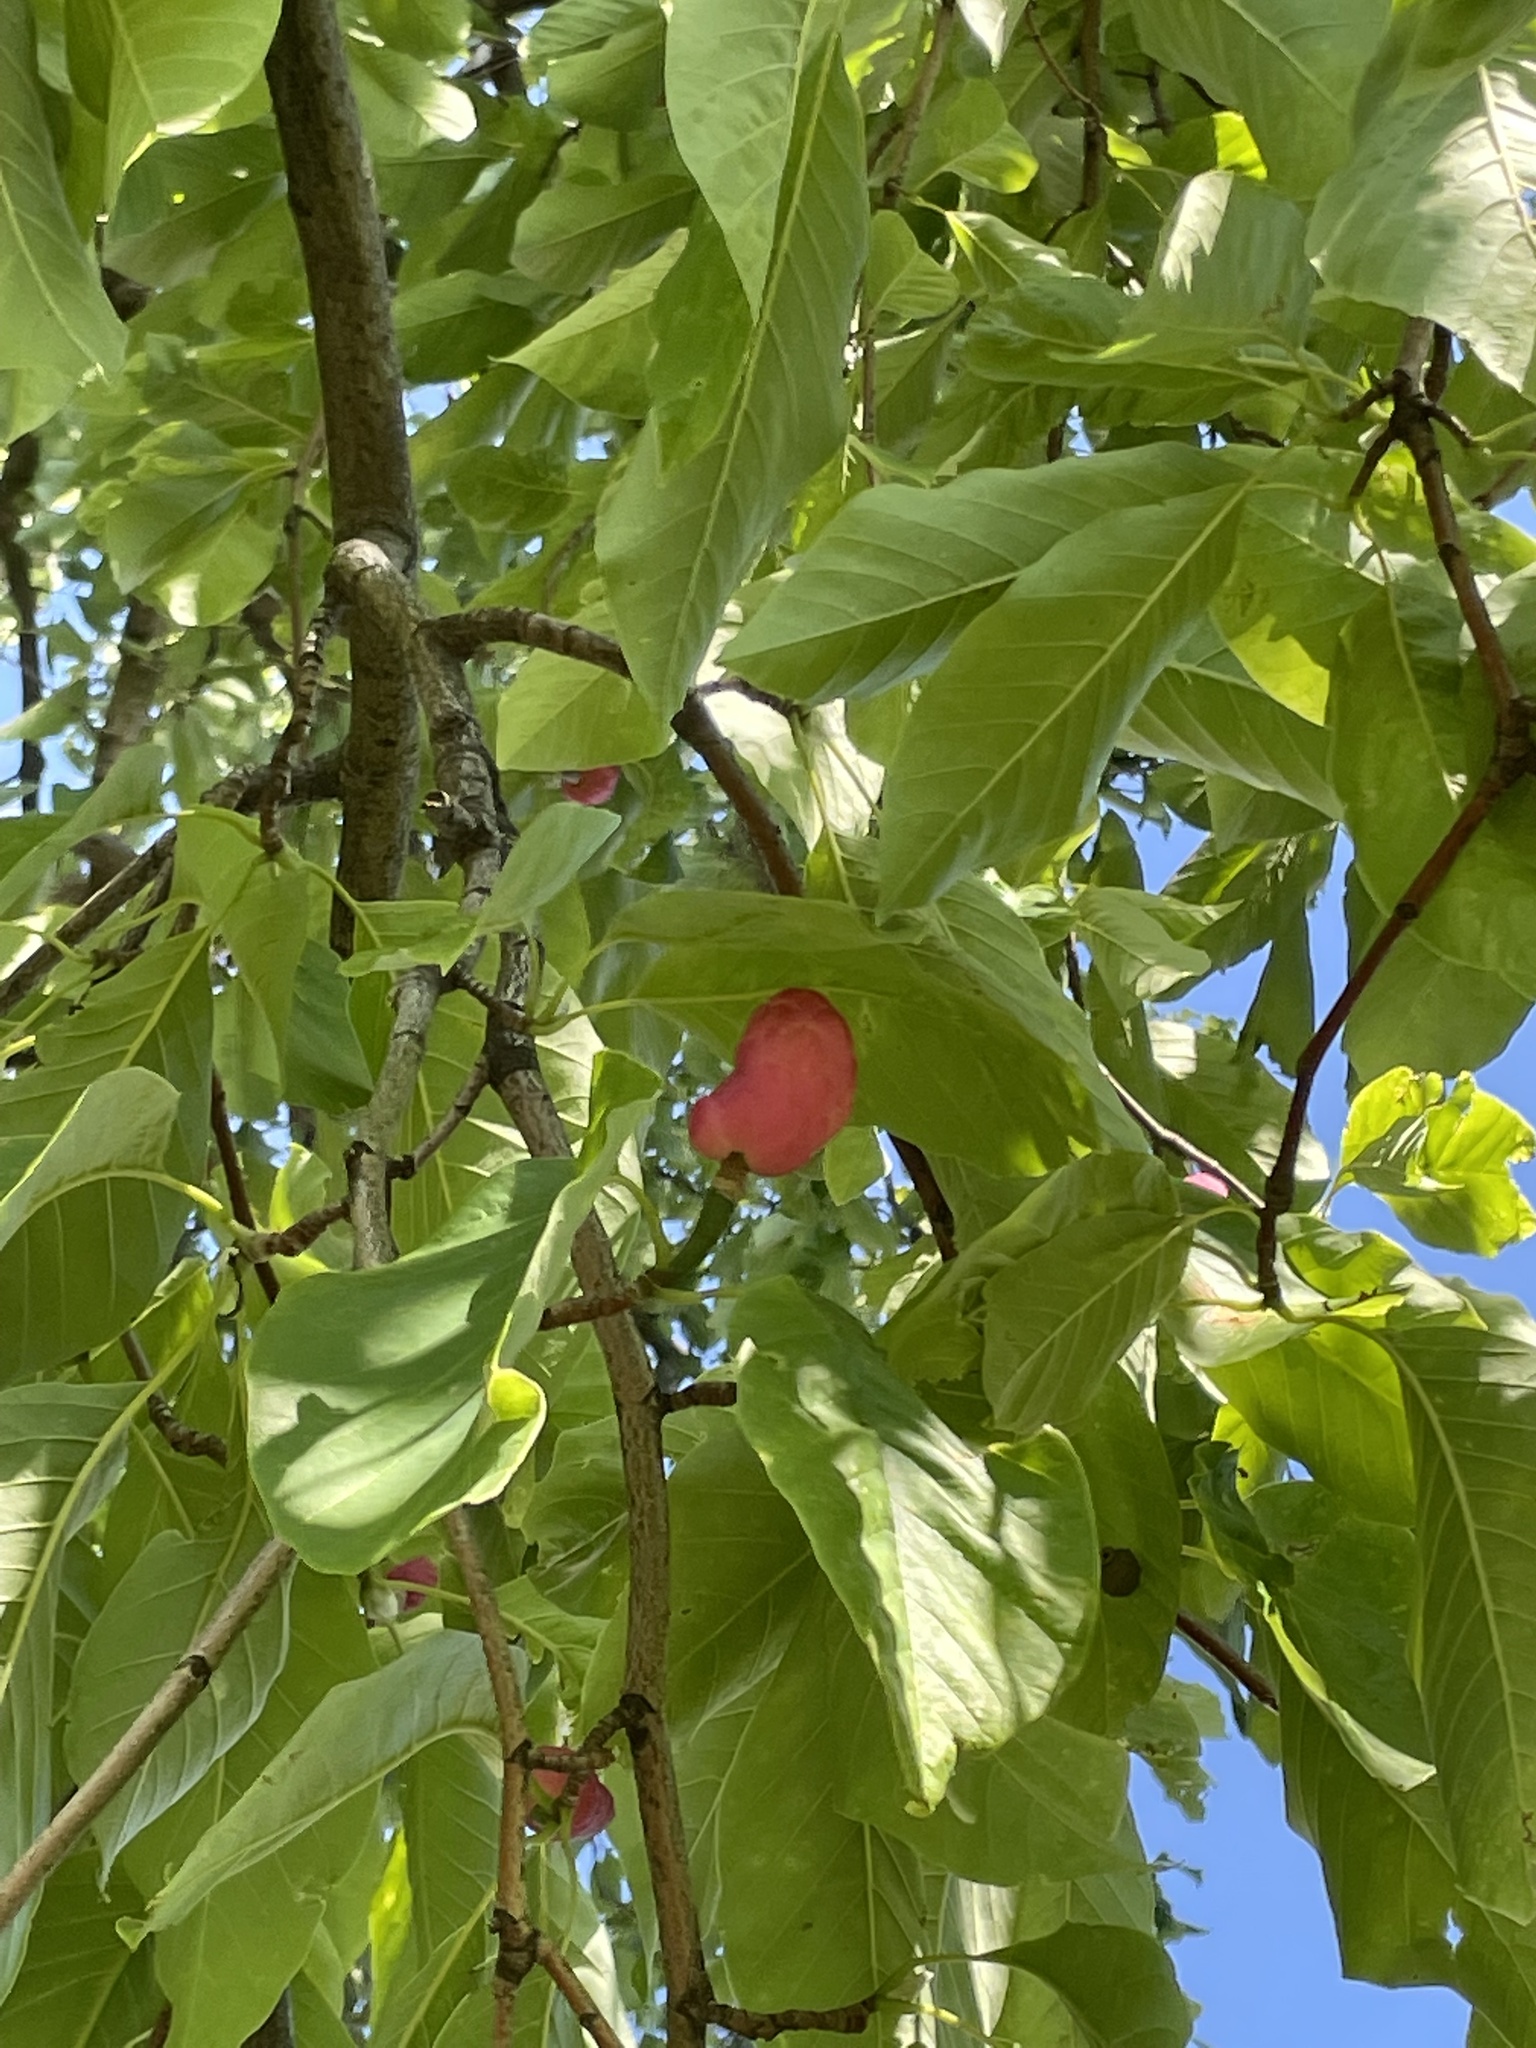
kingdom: Plantae
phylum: Tracheophyta
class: Magnoliopsida
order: Magnoliales
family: Magnoliaceae
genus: Magnolia
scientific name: Magnolia acuminata
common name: Cucumber magnolia
